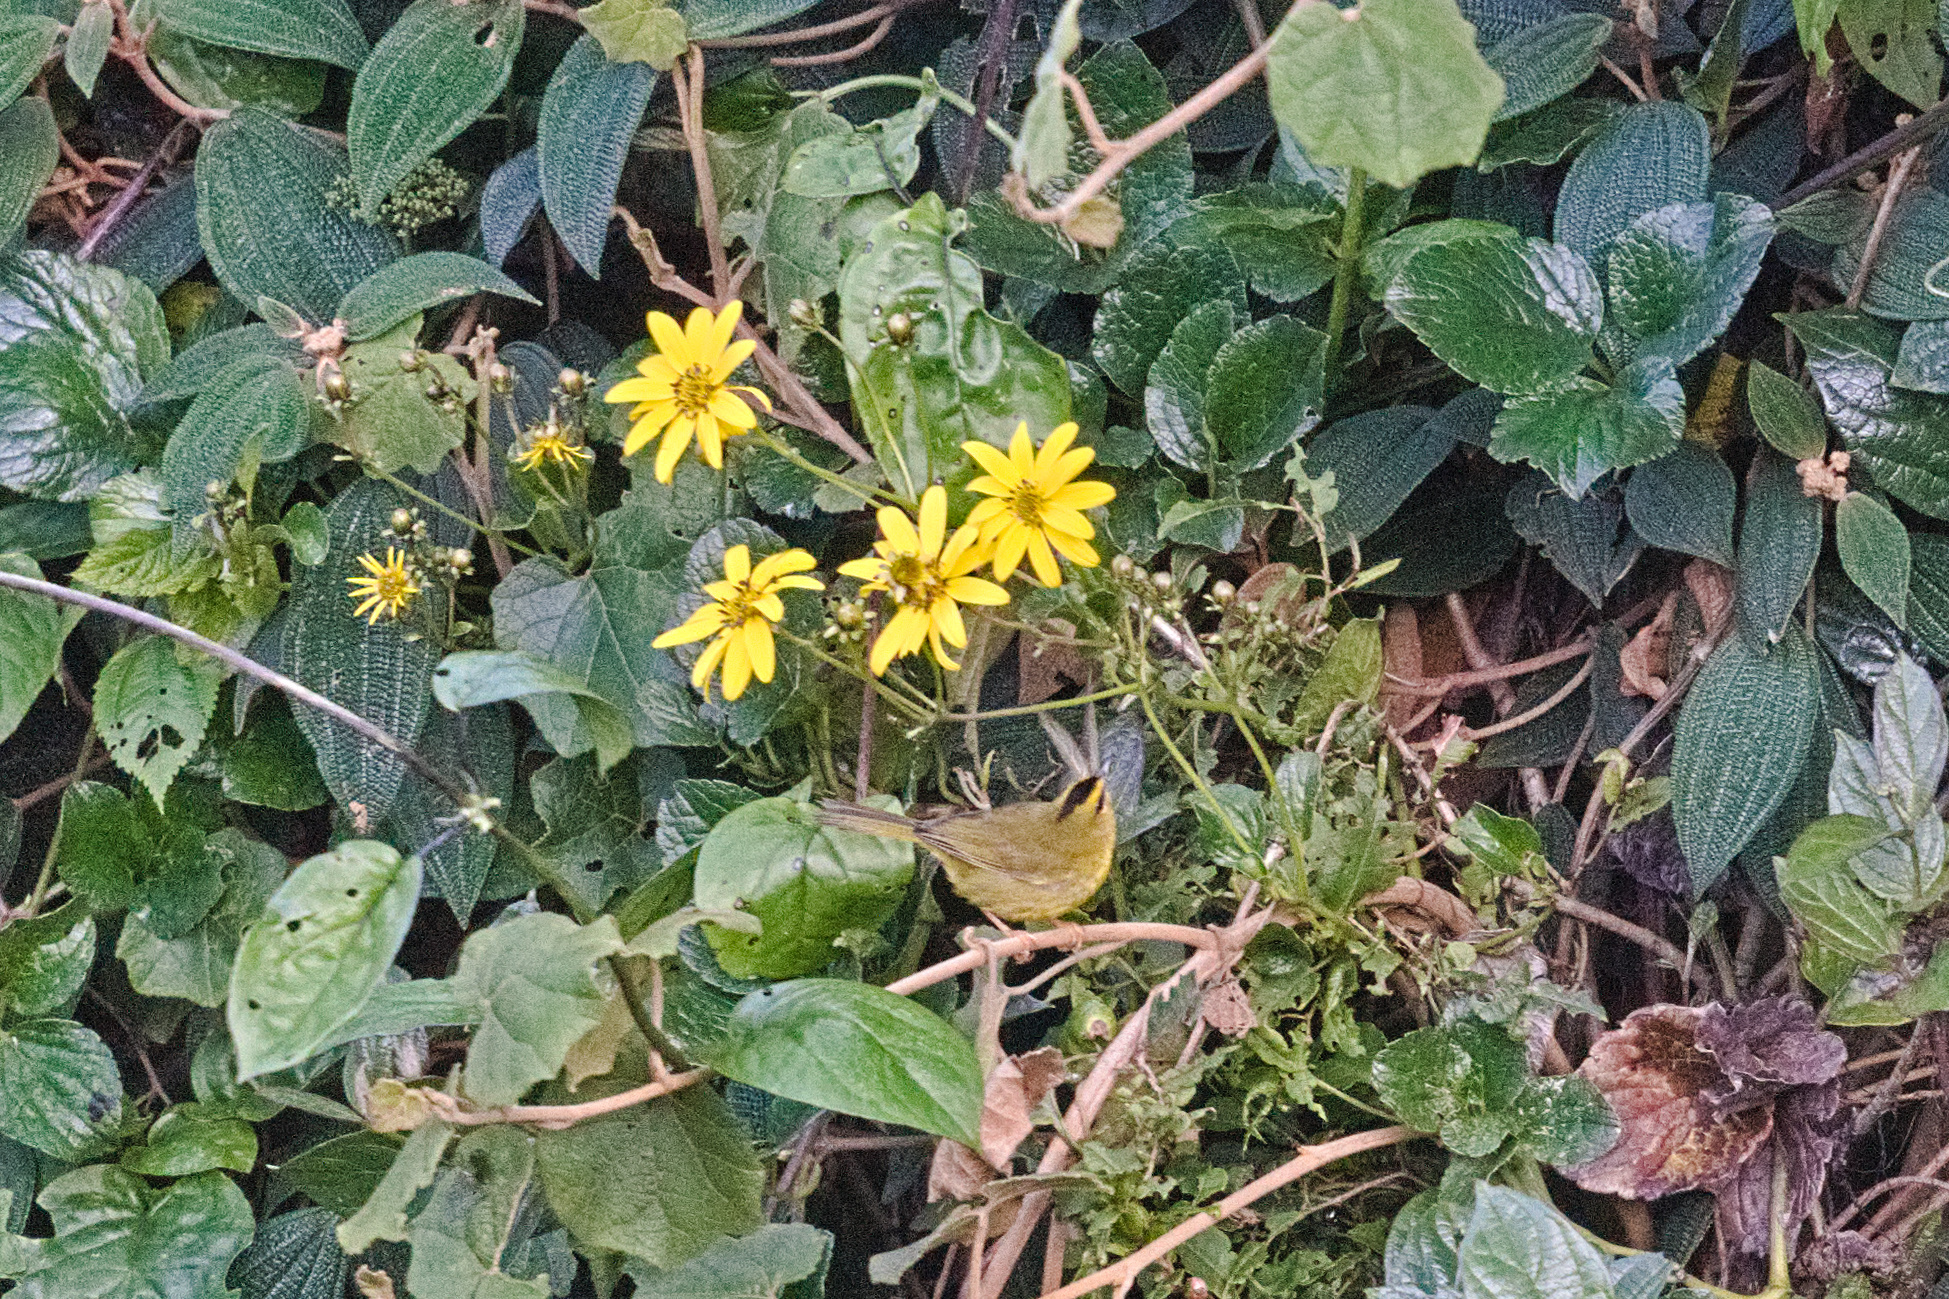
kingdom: Animalia
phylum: Chordata
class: Aves
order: Passeriformes
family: Parulidae
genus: Myiothlypis
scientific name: Myiothlypis nigrocristata
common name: Black-crested warbler
